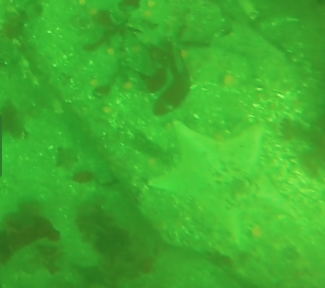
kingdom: Animalia
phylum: Echinodermata
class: Asteroidea
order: Valvatida
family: Asterinidae
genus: Patiria
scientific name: Patiria miniata
